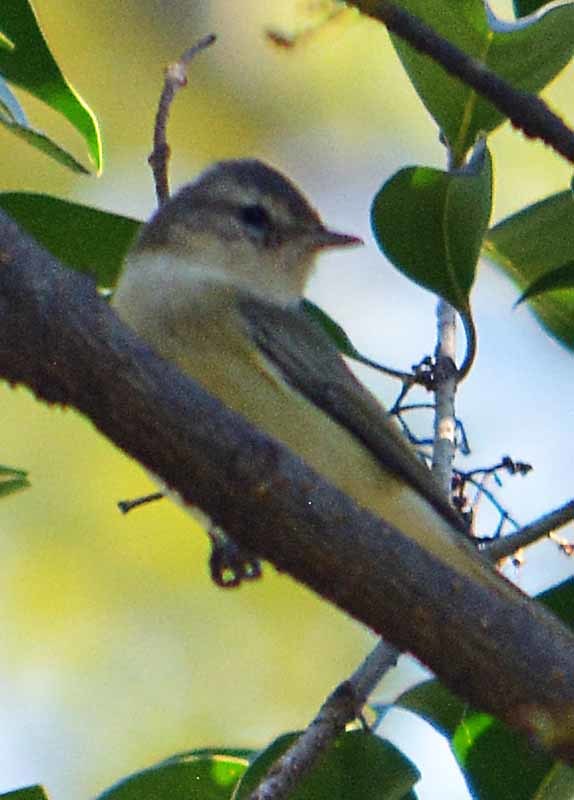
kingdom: Animalia
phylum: Chordata
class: Aves
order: Passeriformes
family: Vireonidae
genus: Vireo
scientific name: Vireo gilvus
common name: Warbling vireo
